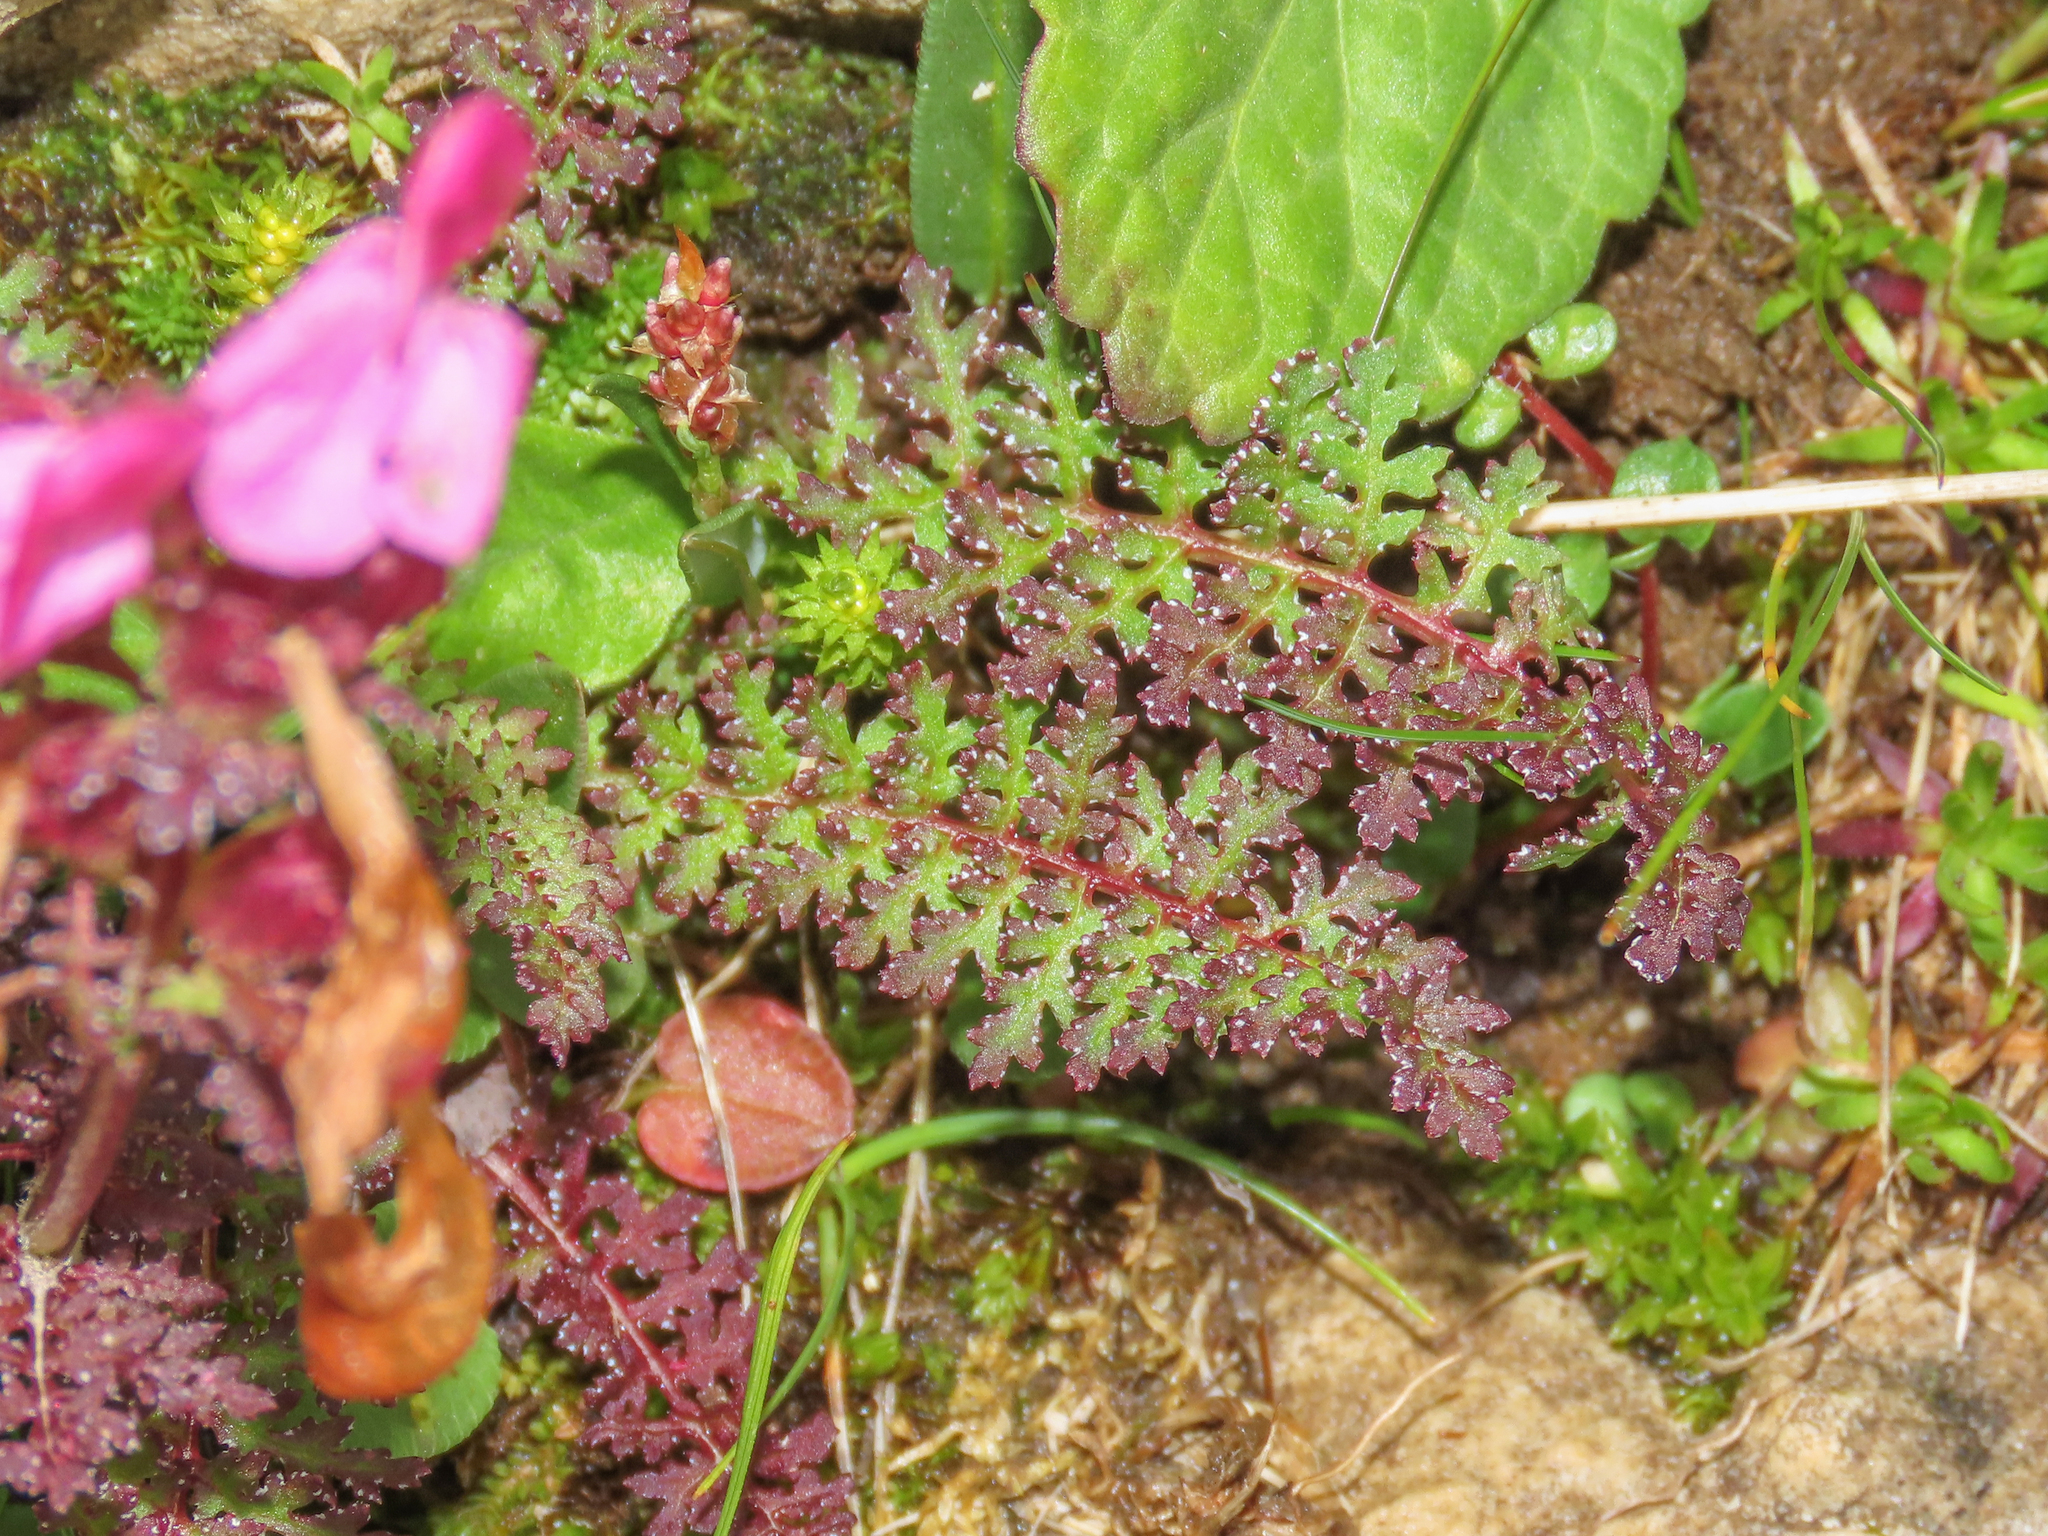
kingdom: Plantae
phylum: Tracheophyta
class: Magnoliopsida
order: Lamiales
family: Orobanchaceae
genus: Pedicularis
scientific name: Pedicularis rostratocapitata
